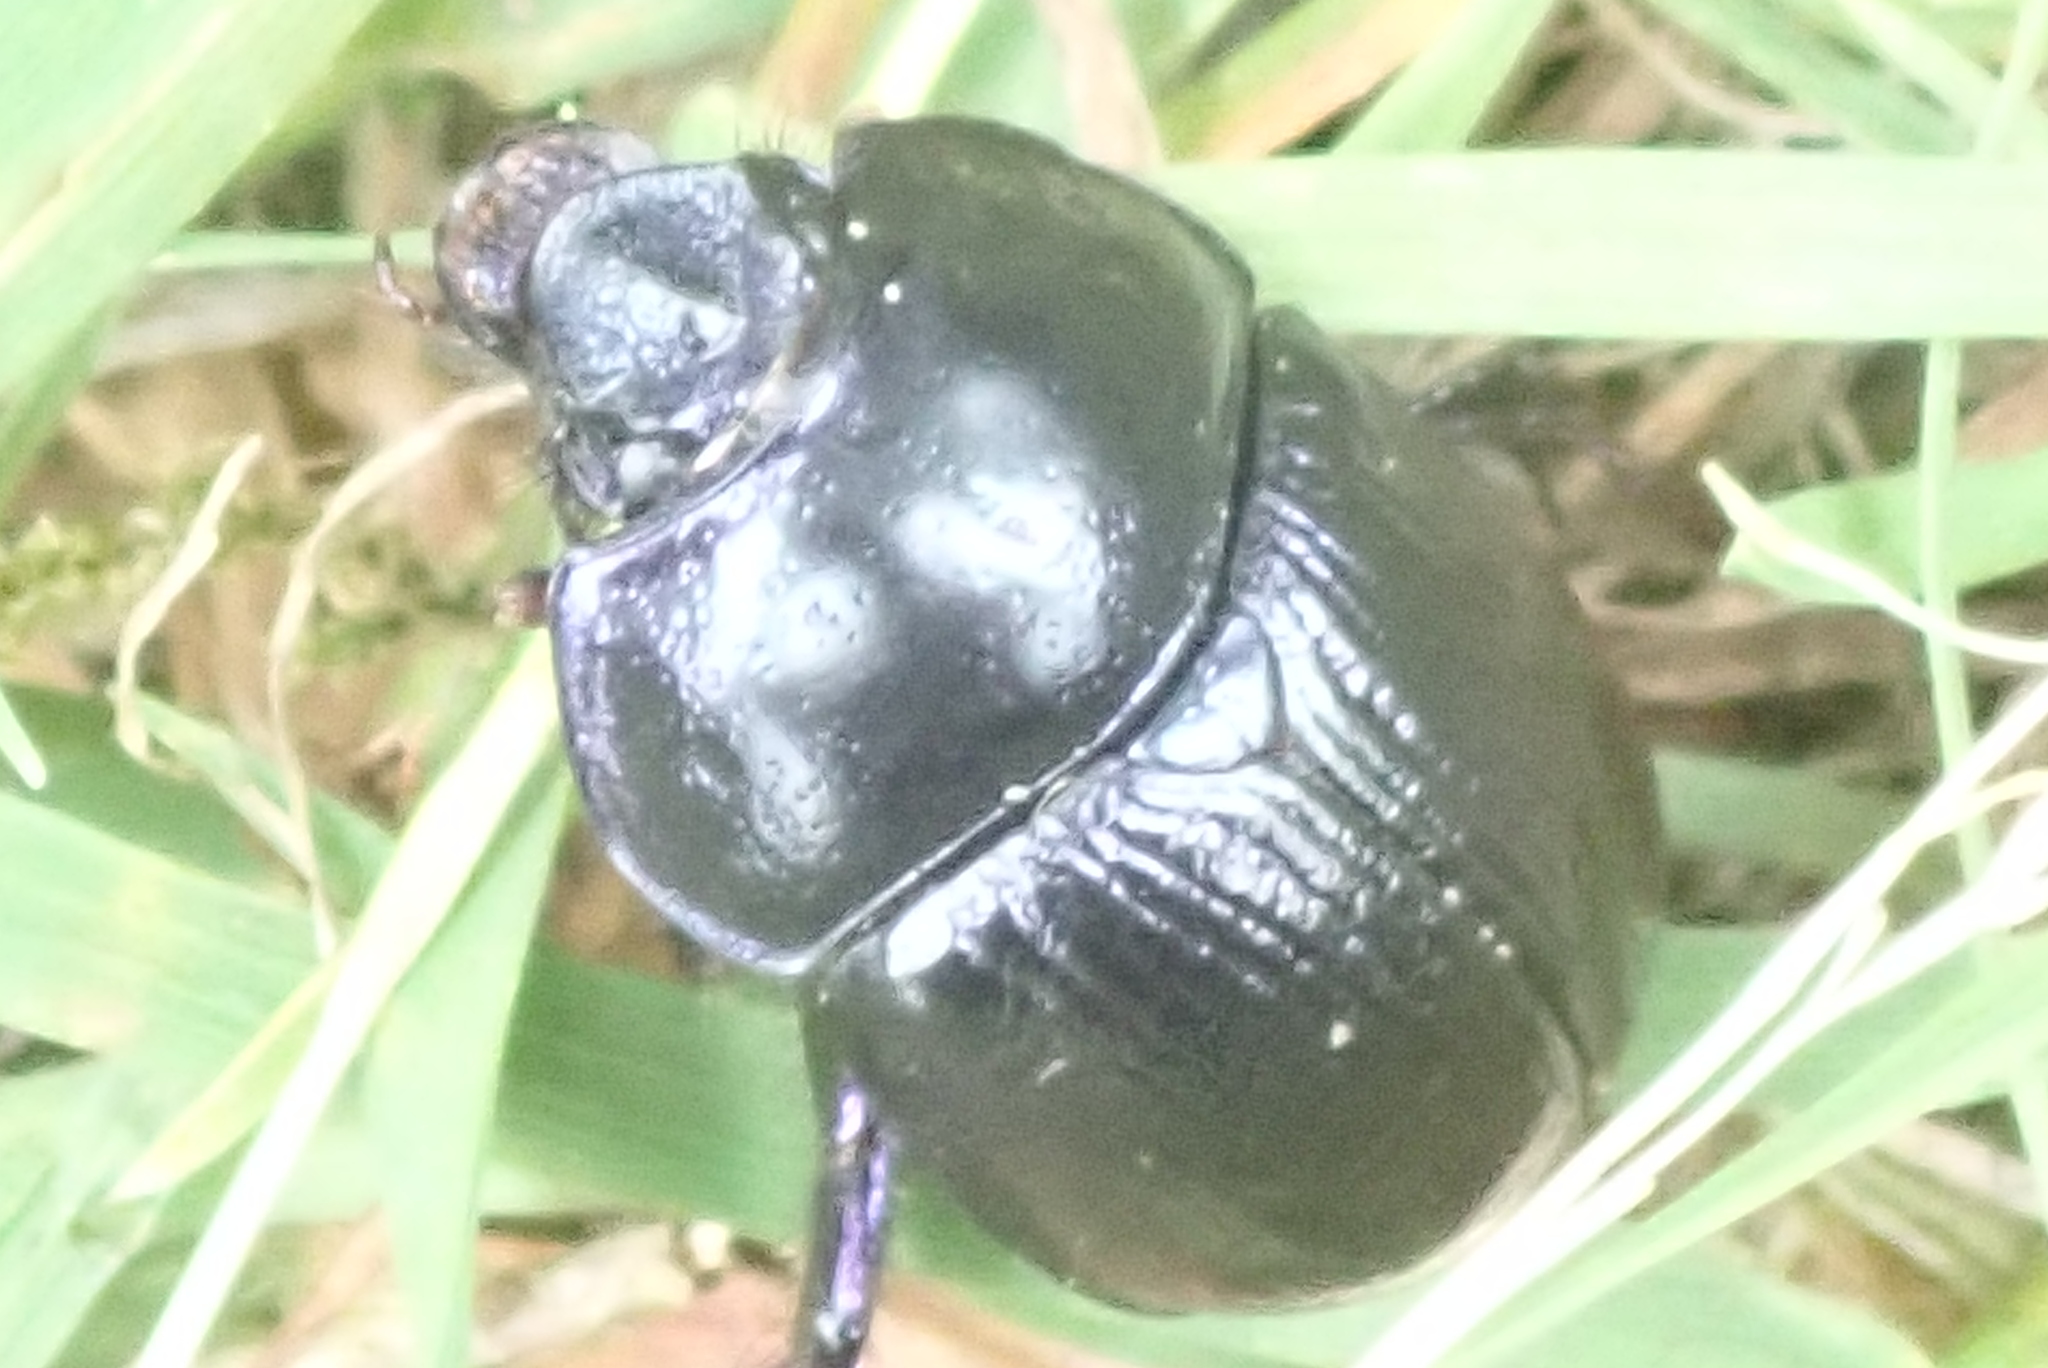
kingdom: Animalia
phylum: Arthropoda
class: Insecta
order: Coleoptera
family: Geotrupidae
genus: Anoplotrupes
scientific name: Anoplotrupes stercorosus
